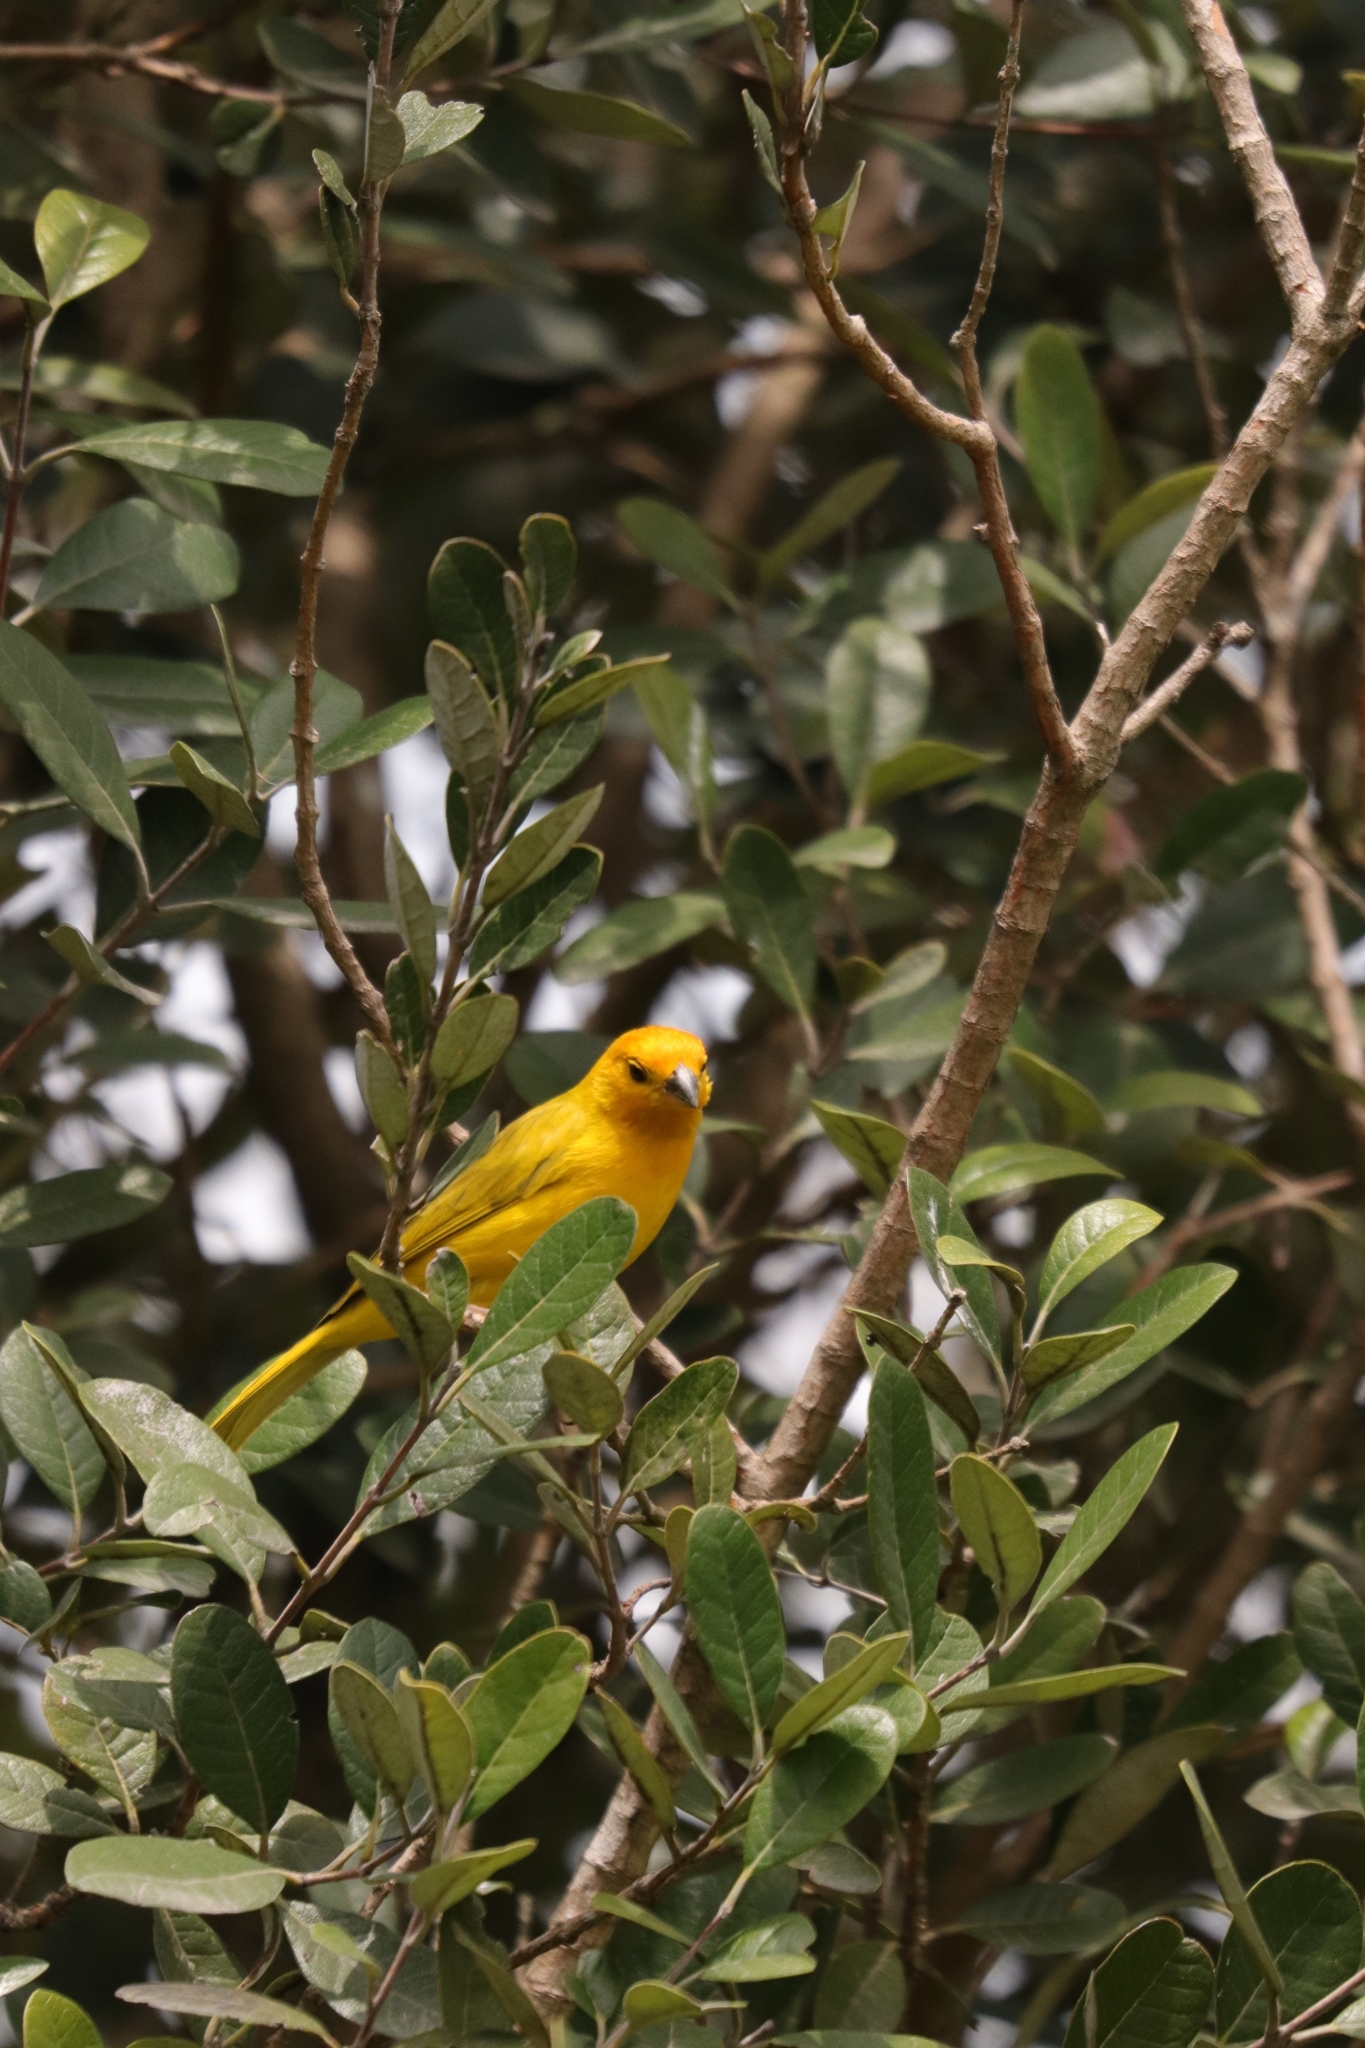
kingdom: Animalia
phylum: Chordata
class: Aves
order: Passeriformes
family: Thraupidae
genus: Sicalis
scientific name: Sicalis flaveola
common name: Saffron finch
